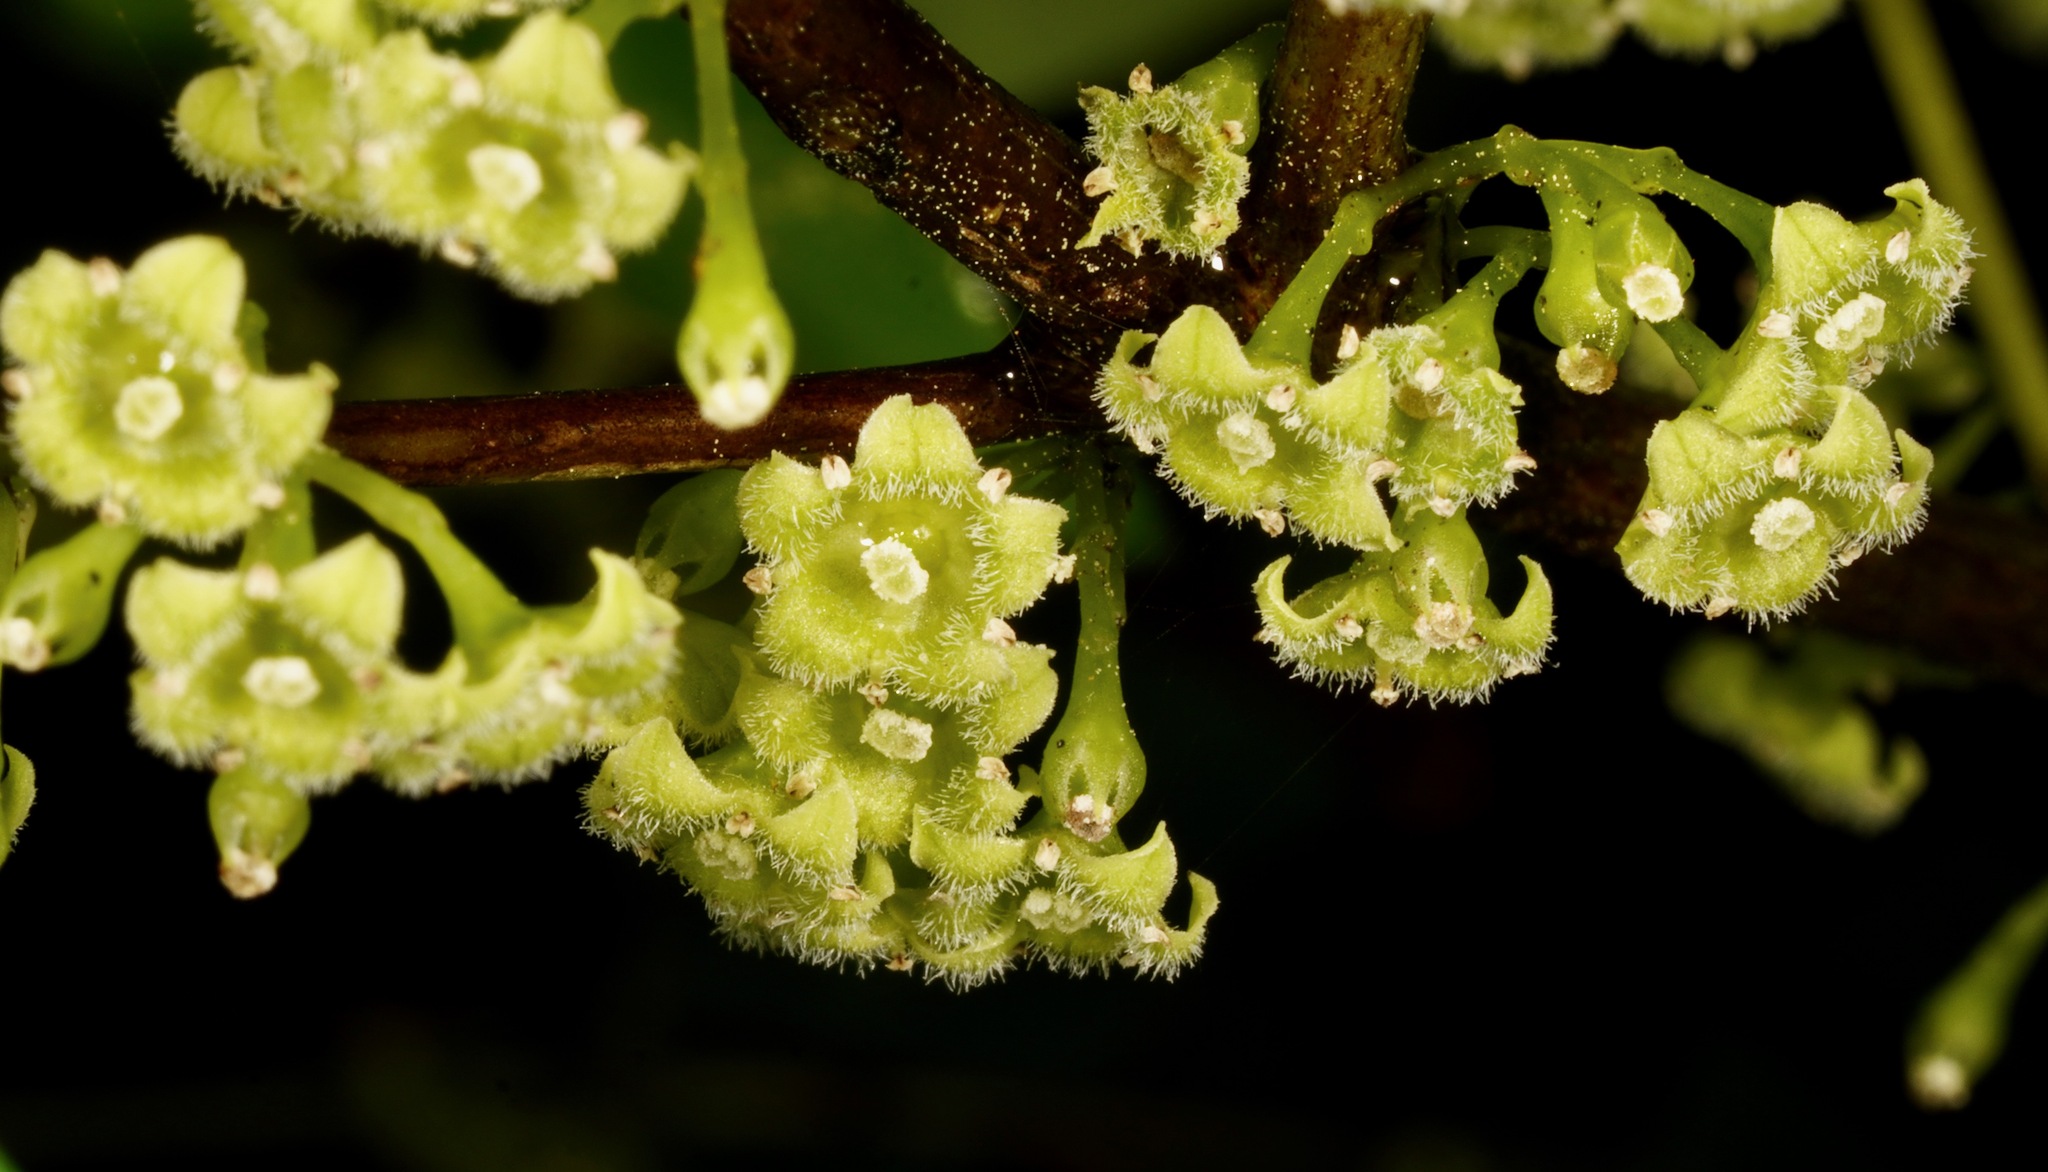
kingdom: Plantae
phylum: Tracheophyta
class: Magnoliopsida
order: Gentianales
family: Loganiaceae
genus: Geniostoma
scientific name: Geniostoma ligustrifolium
